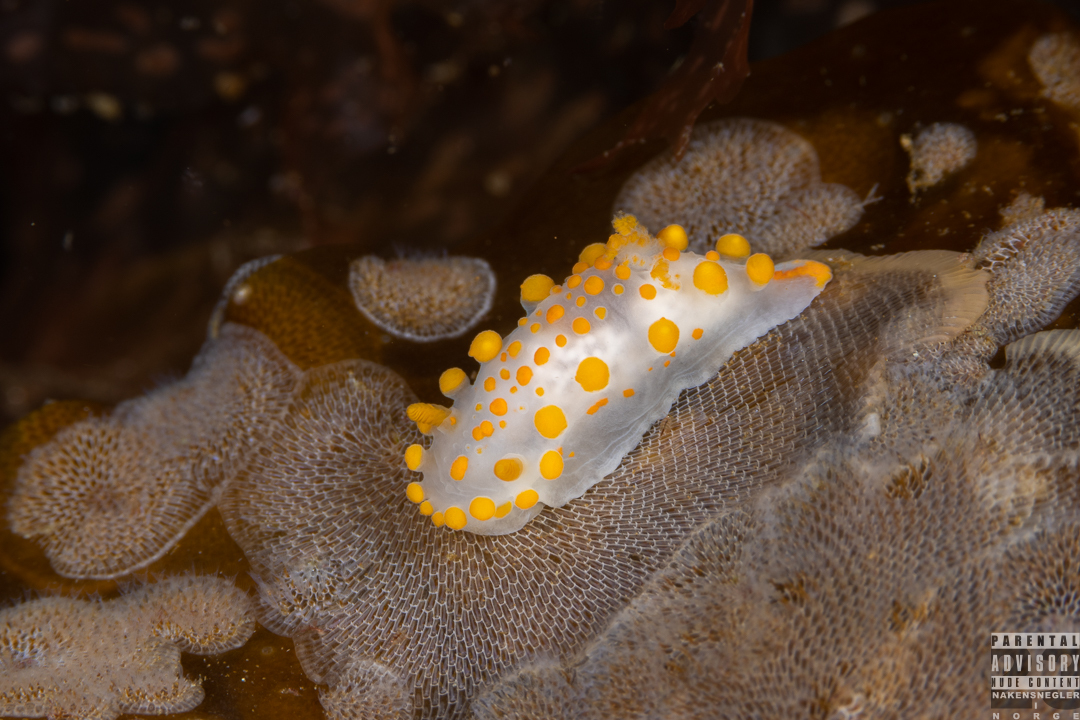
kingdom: Animalia
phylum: Mollusca
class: Gastropoda
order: Nudibranchia
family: Polyceridae
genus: Limacia
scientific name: Limacia clavigera
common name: Orange-clubbed sea slug
